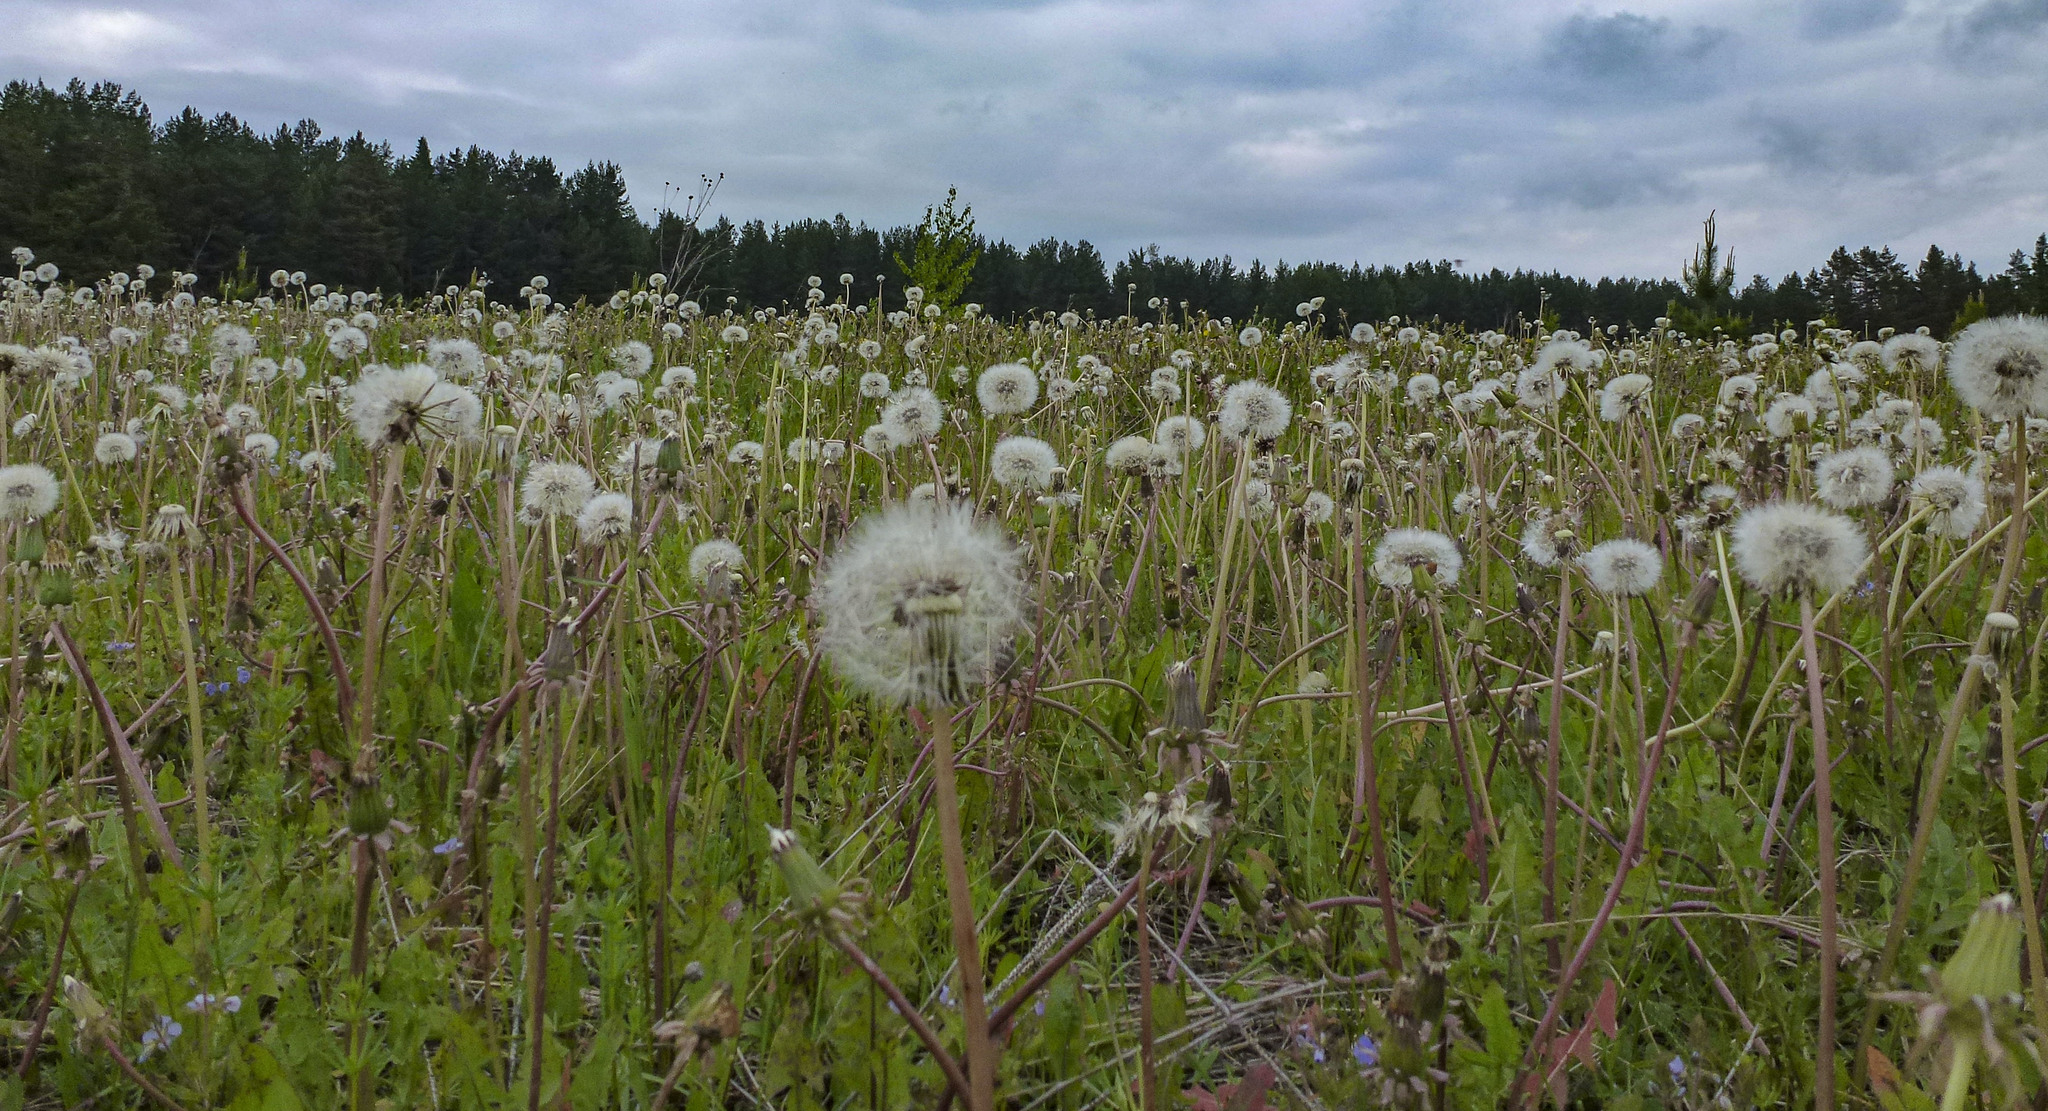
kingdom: Plantae
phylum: Tracheophyta
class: Magnoliopsida
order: Asterales
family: Asteraceae
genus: Taraxacum
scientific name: Taraxacum officinale
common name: Common dandelion
